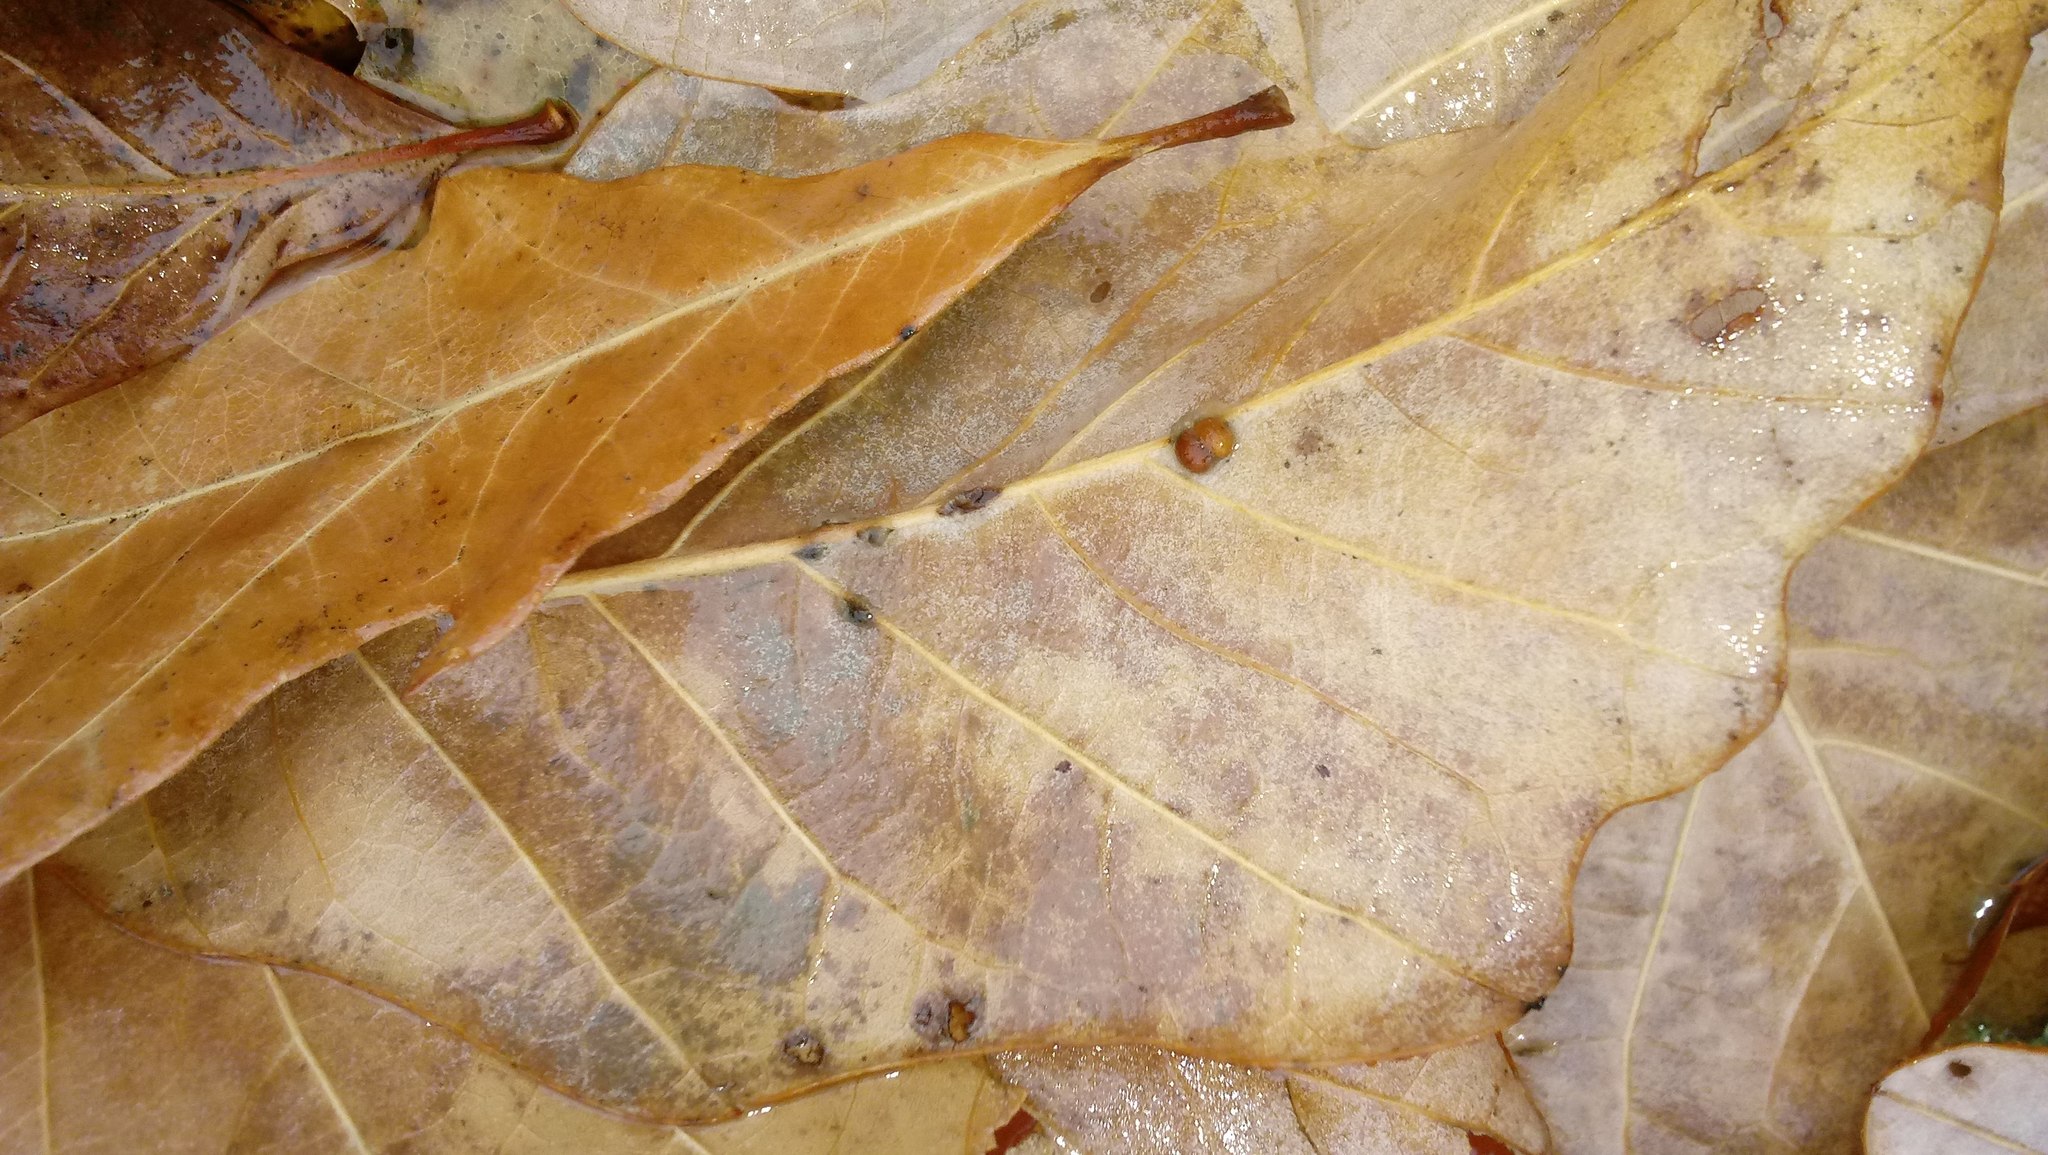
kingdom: Animalia
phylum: Arthropoda
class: Insecta
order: Hymenoptera
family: Cynipidae
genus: Andricus
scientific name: Andricus Druon ignotum
